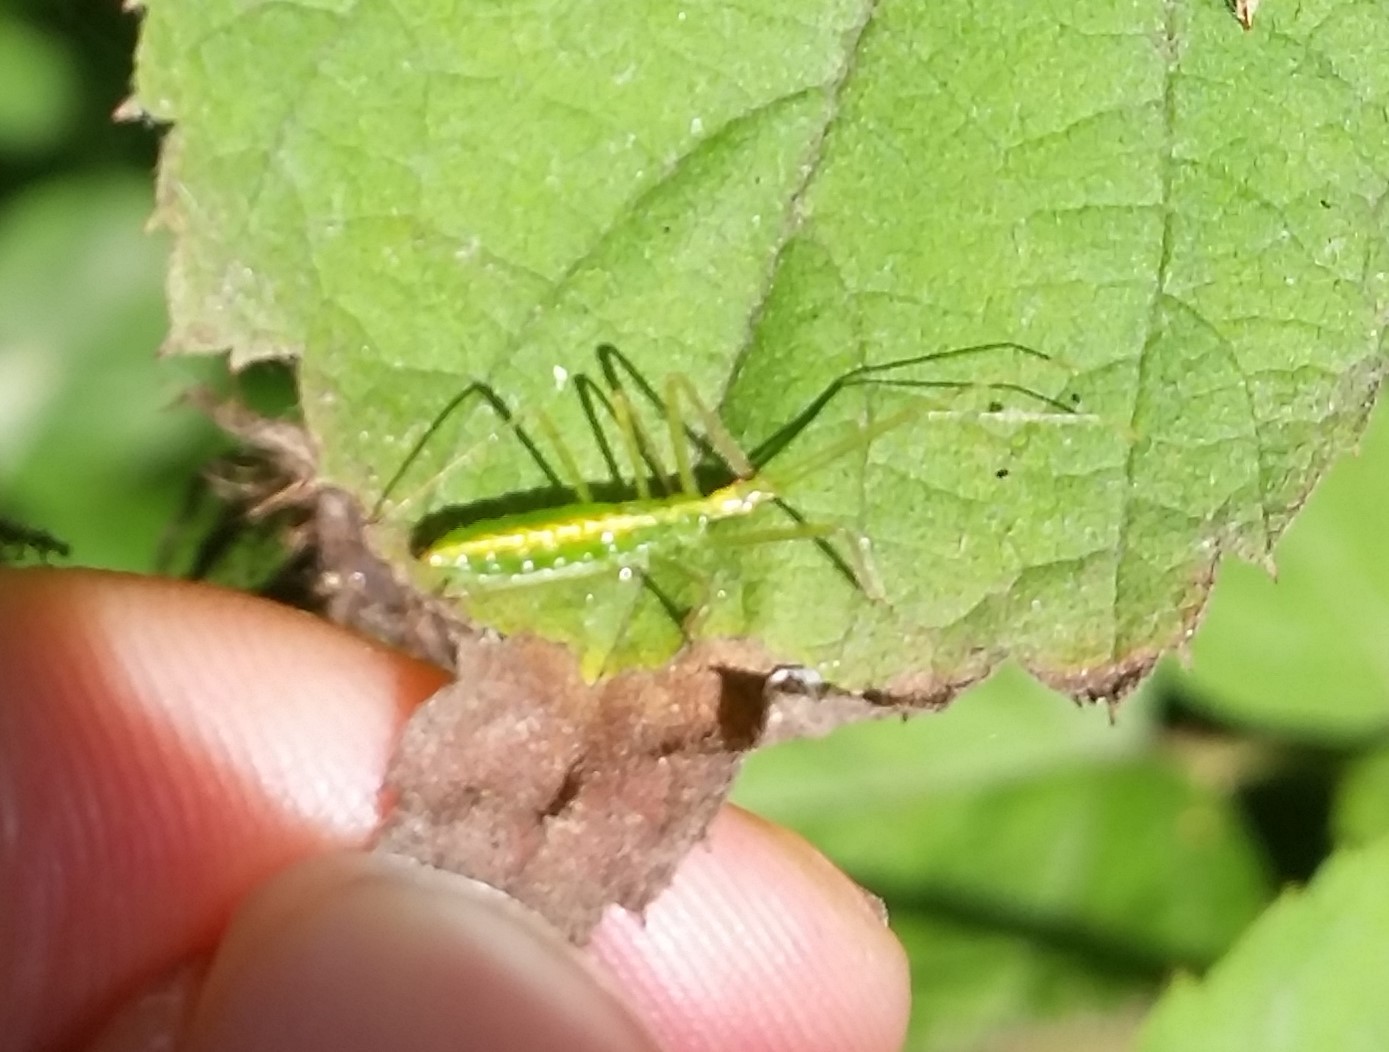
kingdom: Animalia
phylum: Arthropoda
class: Insecta
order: Hemiptera
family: Reduviidae
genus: Zelus
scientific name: Zelus luridus
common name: Pale green assassin bug
